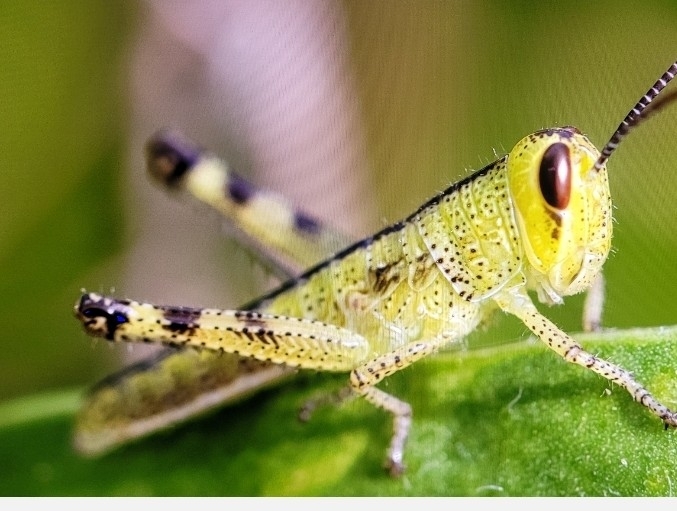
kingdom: Animalia
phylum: Arthropoda
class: Insecta
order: Orthoptera
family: Acrididae
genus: Schistocerca
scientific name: Schistocerca americana
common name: American bird locust
